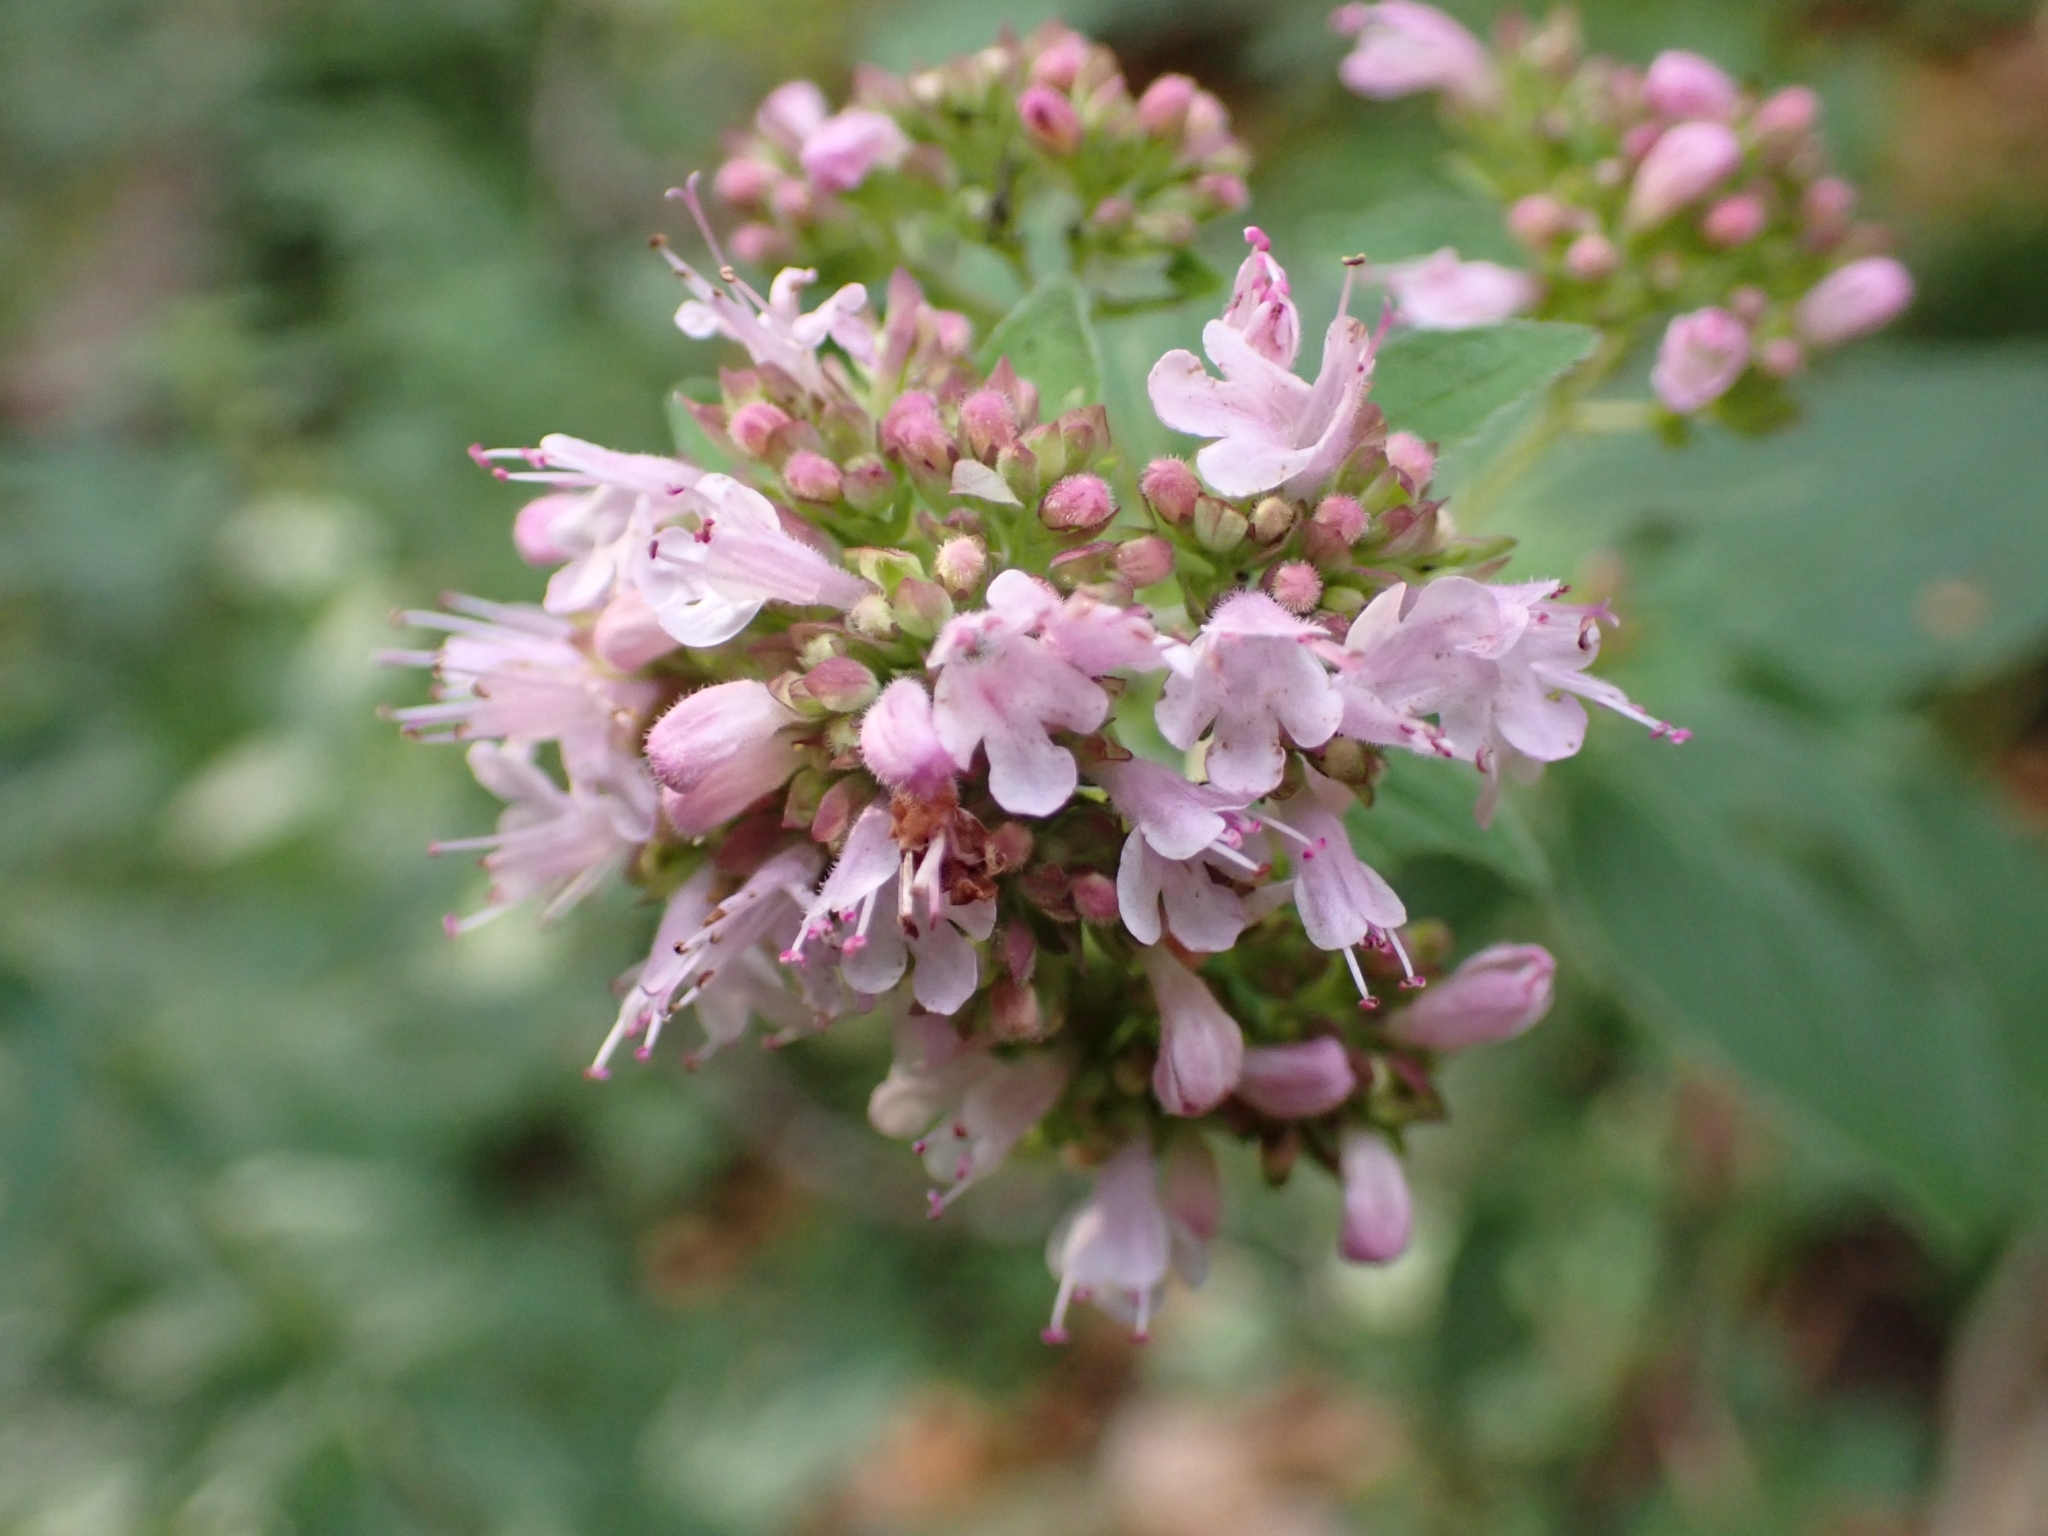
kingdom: Plantae
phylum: Tracheophyta
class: Magnoliopsida
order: Lamiales
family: Lamiaceae
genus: Origanum
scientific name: Origanum vulgare
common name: Wild marjoram
